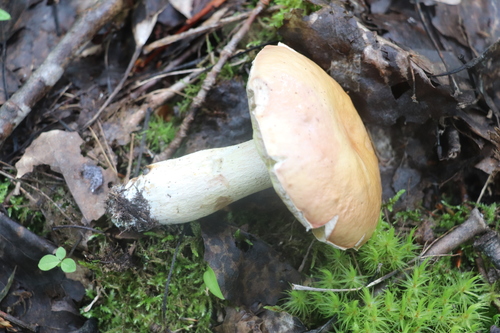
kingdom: Fungi
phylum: Basidiomycota
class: Agaricomycetes
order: Boletales
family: Boletaceae
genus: Boletus
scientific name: Boletus edulis
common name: Cep
